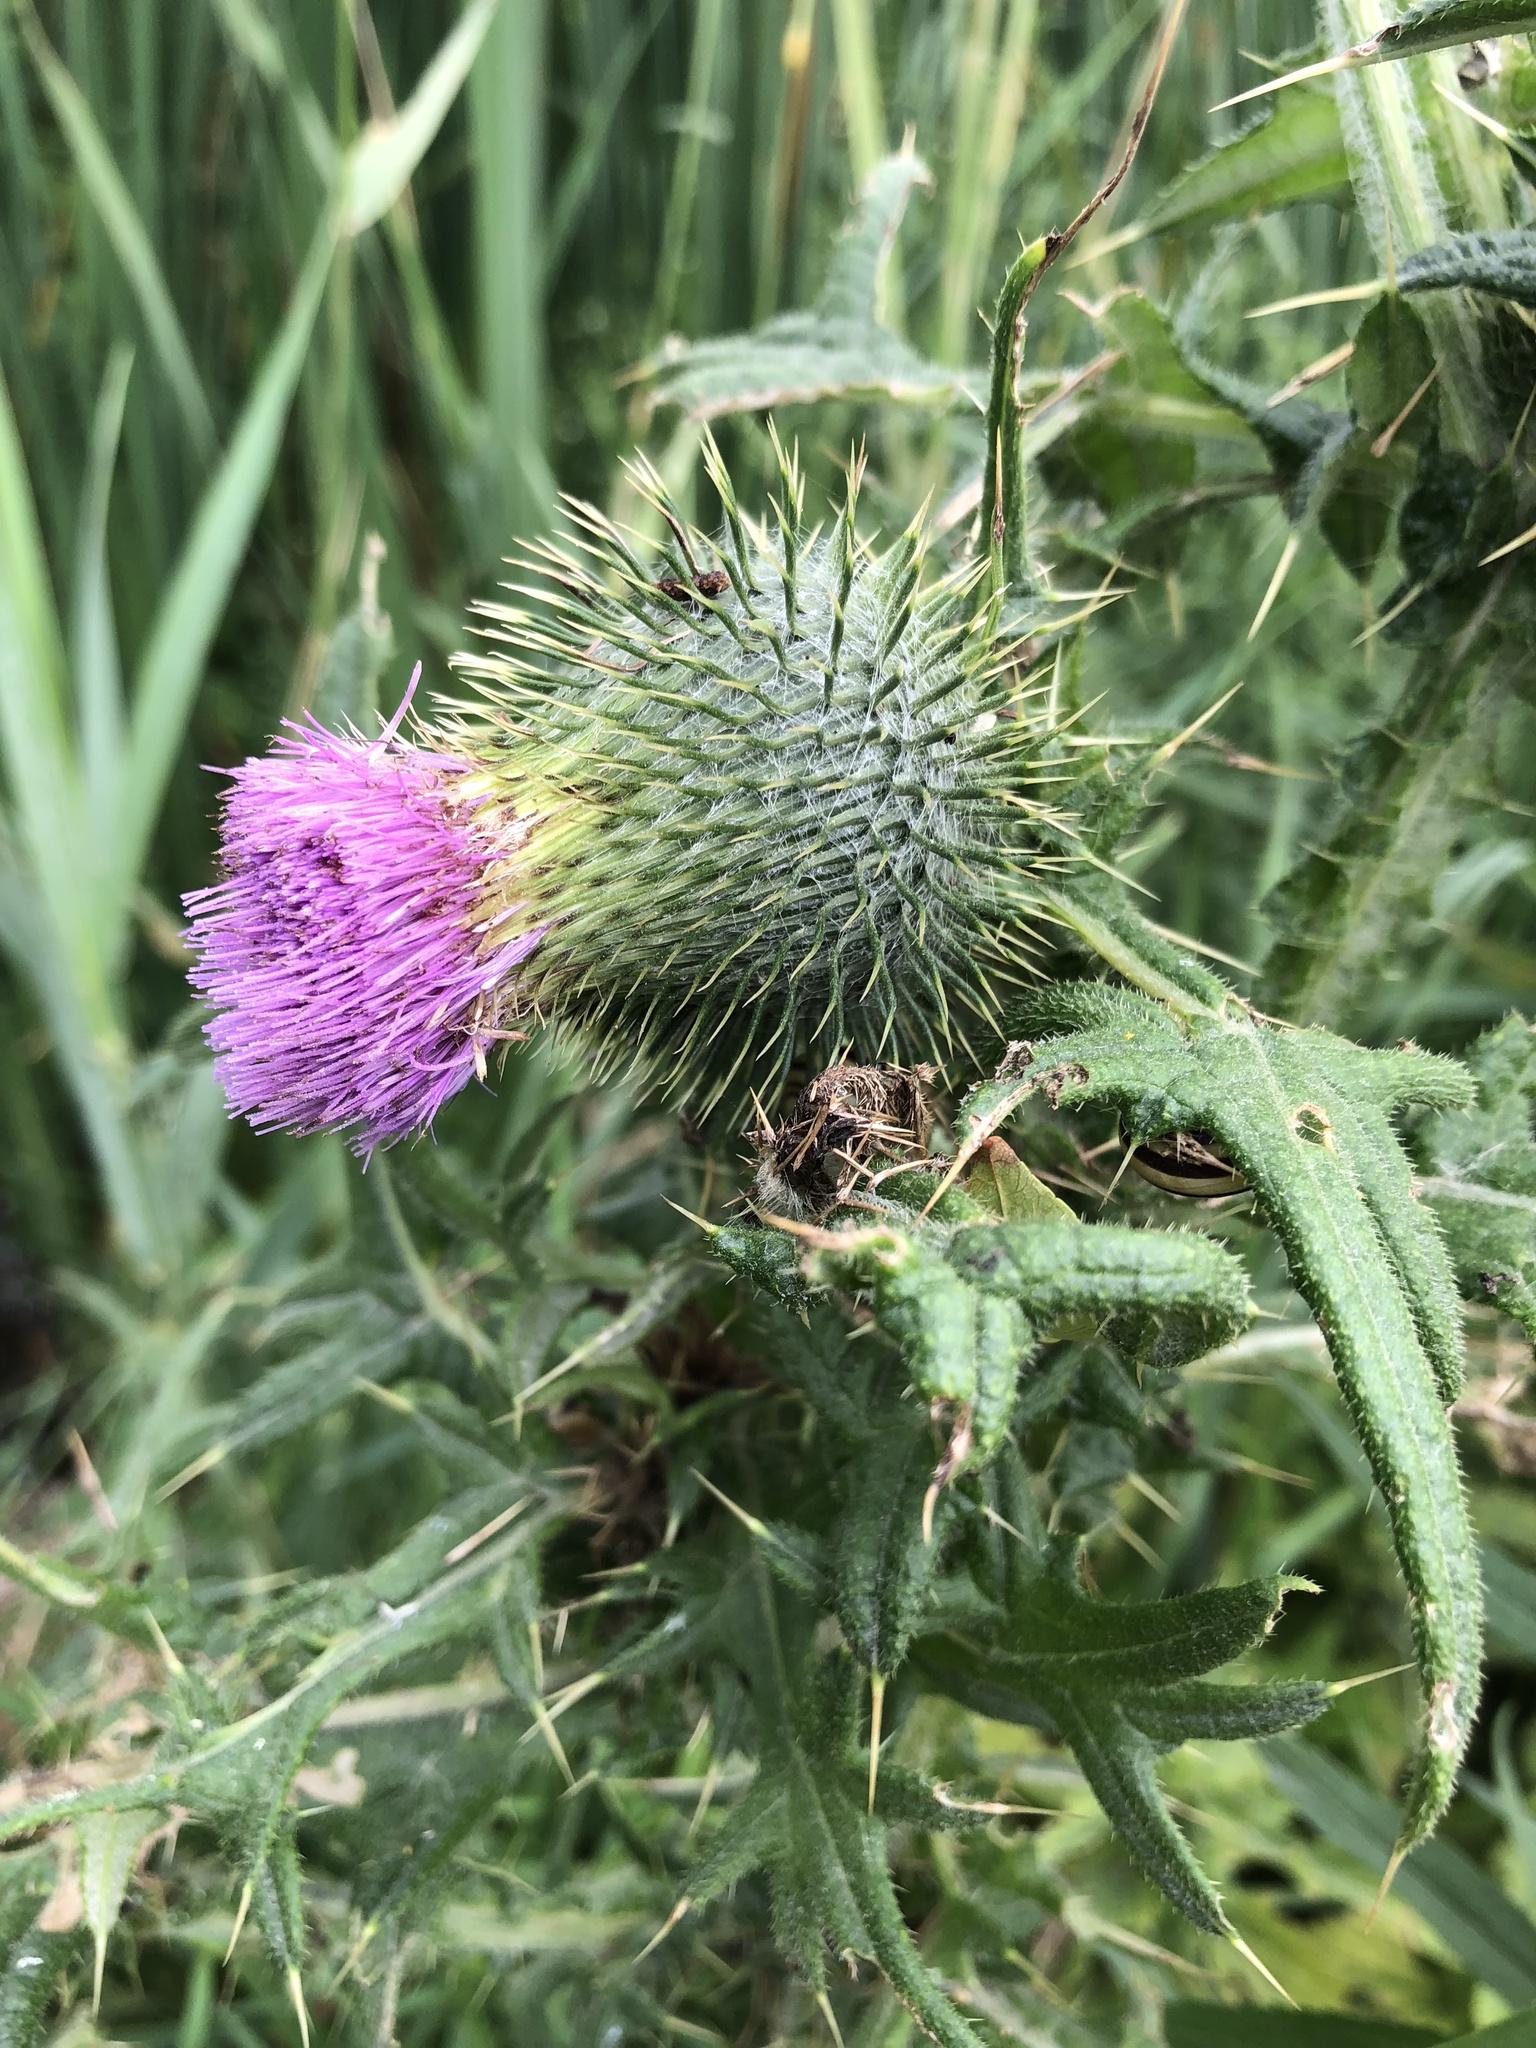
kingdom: Plantae
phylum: Tracheophyta
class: Magnoliopsida
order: Asterales
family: Asteraceae
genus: Cirsium
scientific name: Cirsium vulgare
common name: Bull thistle
